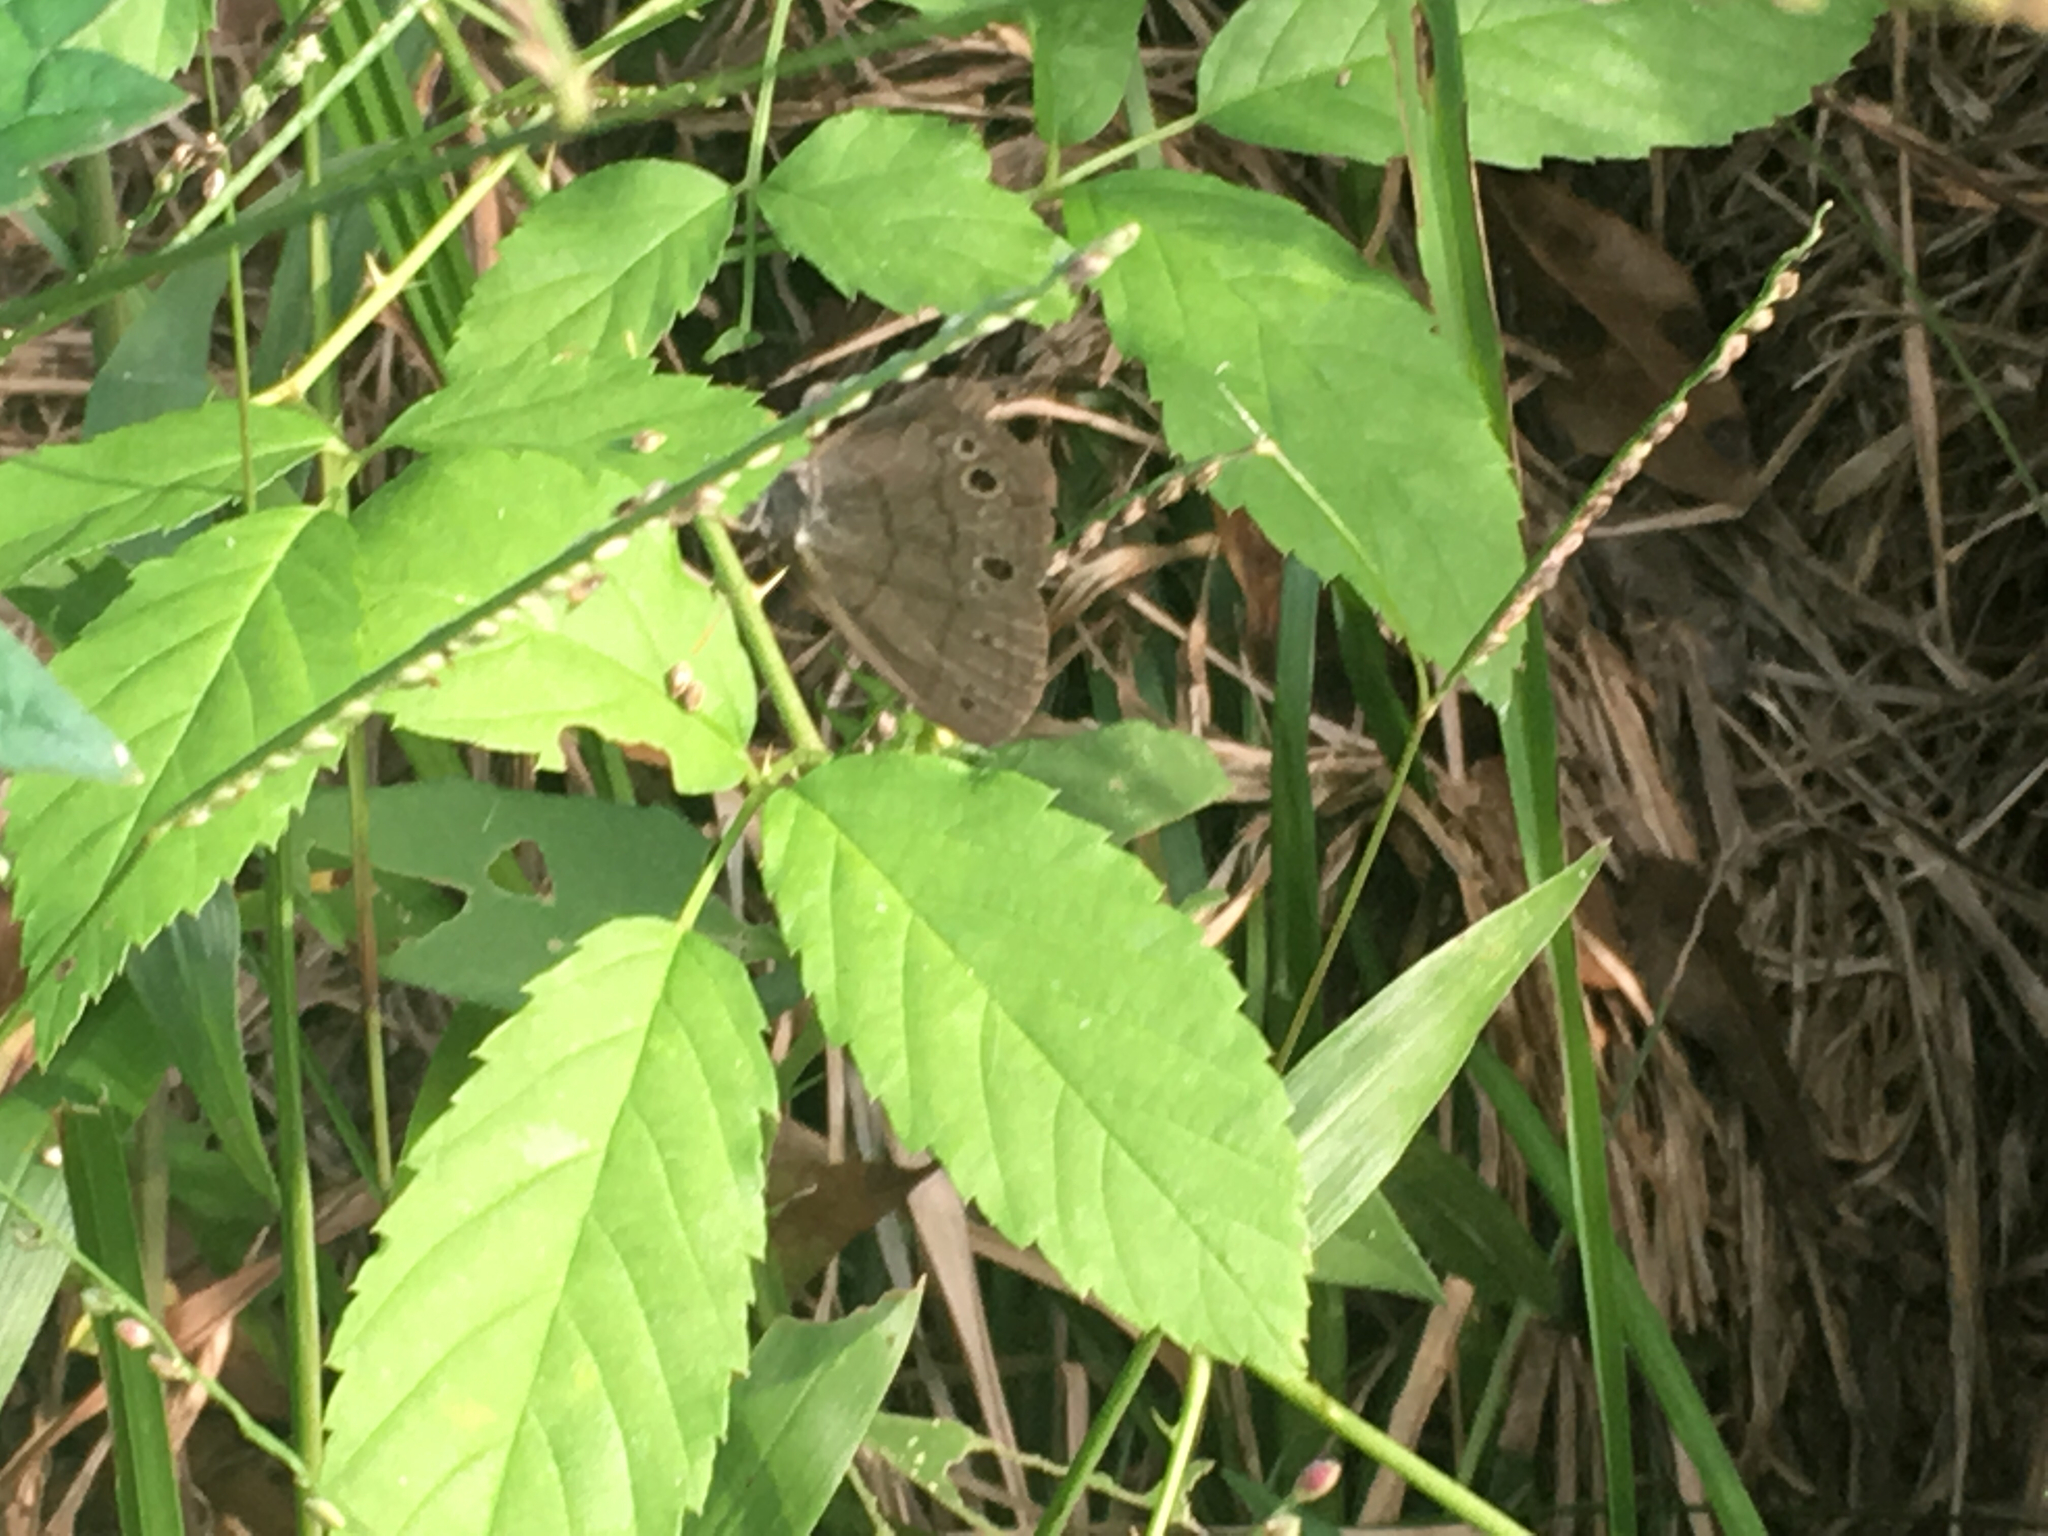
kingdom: Animalia
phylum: Arthropoda
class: Insecta
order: Lepidoptera
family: Nymphalidae
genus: Hermeuptychia
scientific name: Hermeuptychia hermes
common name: Hermes satyr
